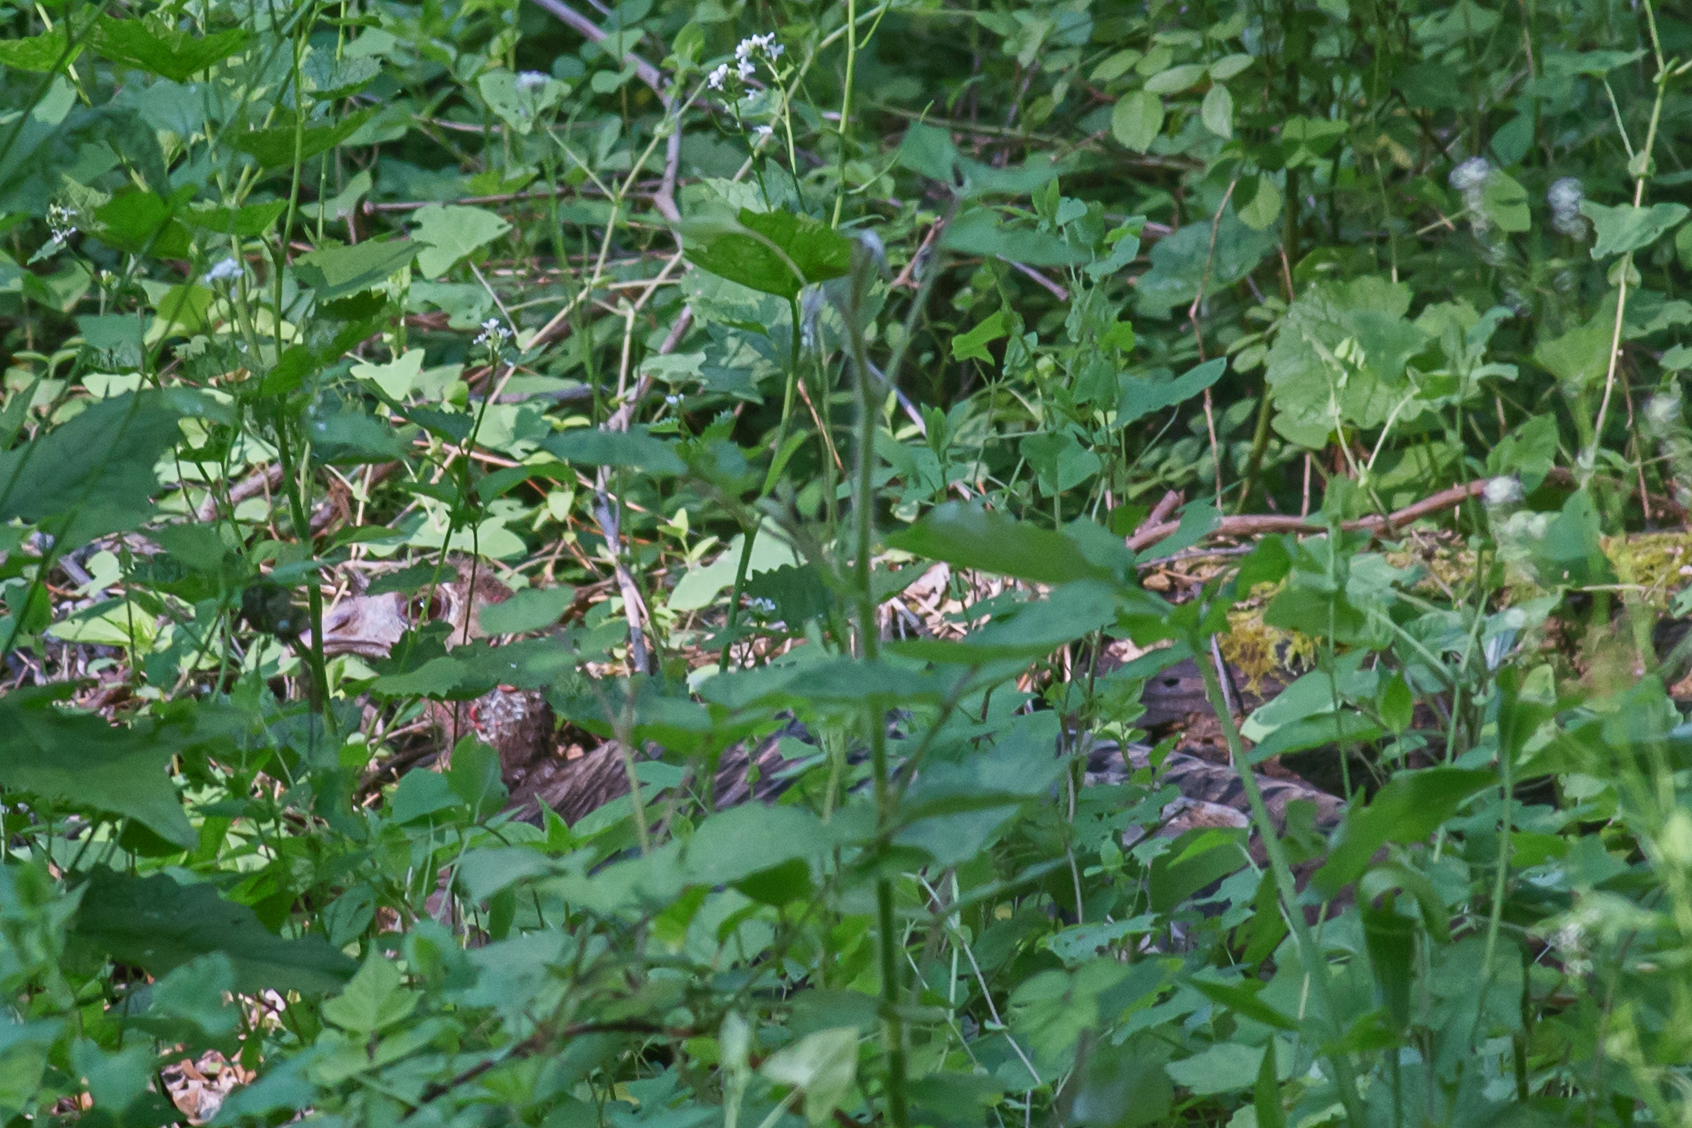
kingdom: Animalia
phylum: Chordata
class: Aves
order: Galliformes
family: Phasianidae
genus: Meleagris
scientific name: Meleagris gallopavo
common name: Wild turkey
